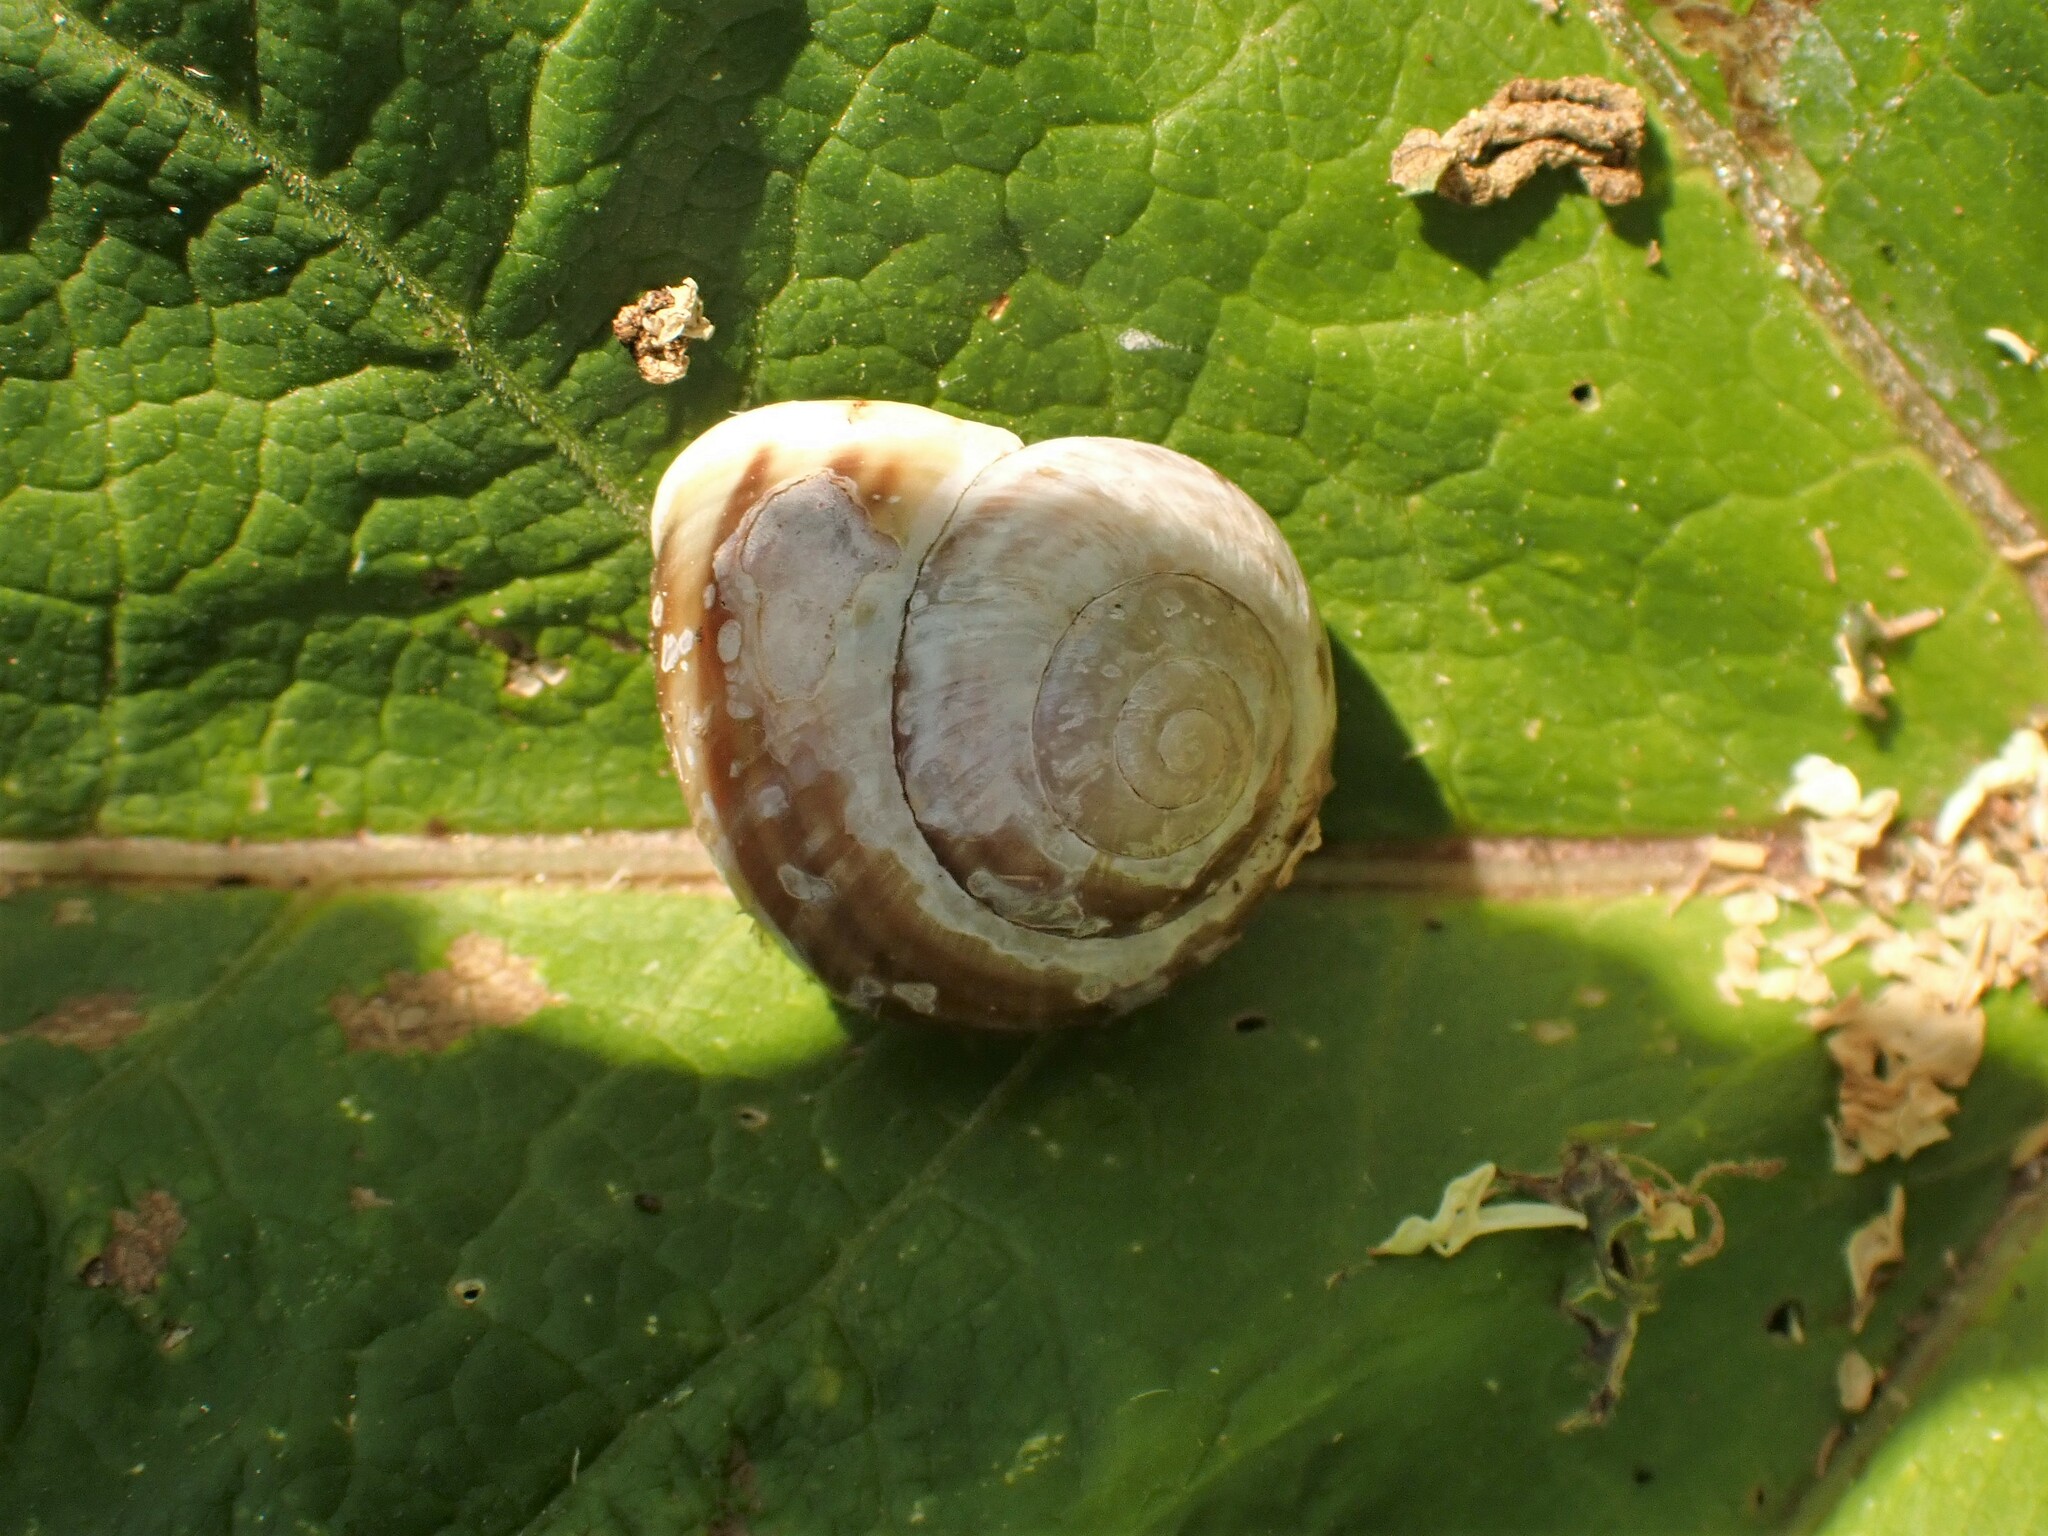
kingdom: Animalia
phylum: Mollusca
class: Gastropoda
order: Stylommatophora
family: Helicidae
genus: Cepaea
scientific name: Cepaea hortensis
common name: White-lip gardensnail
